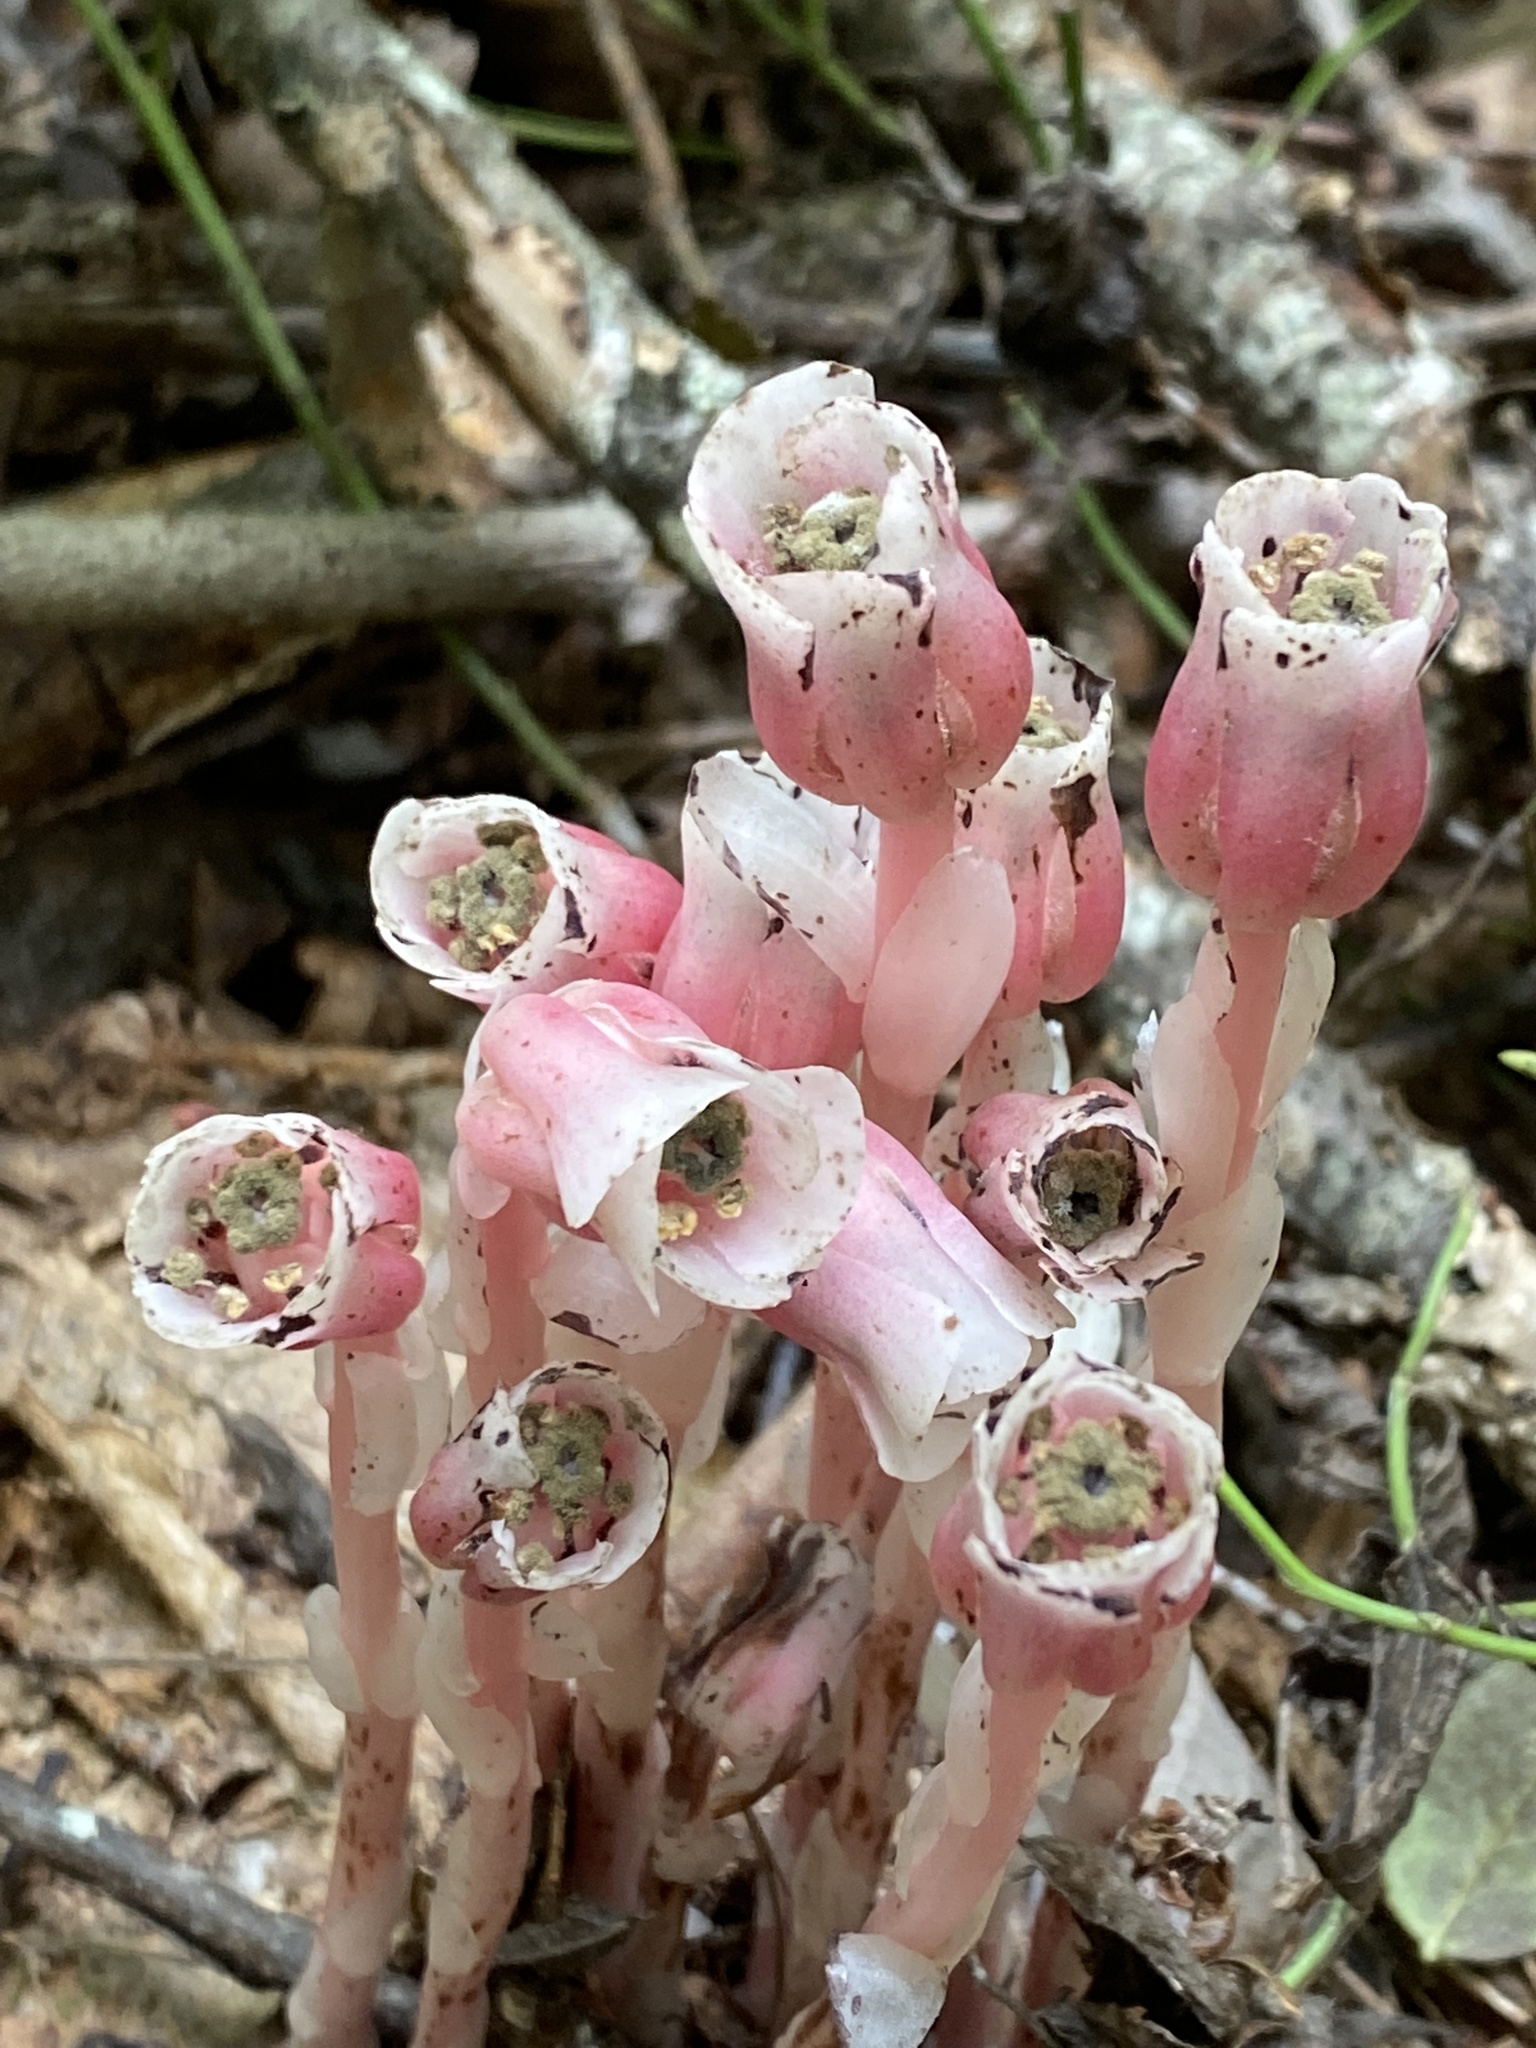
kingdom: Plantae
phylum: Tracheophyta
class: Magnoliopsida
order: Ericales
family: Ericaceae
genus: Monotropa
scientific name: Monotropa uniflora
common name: Convulsion root
